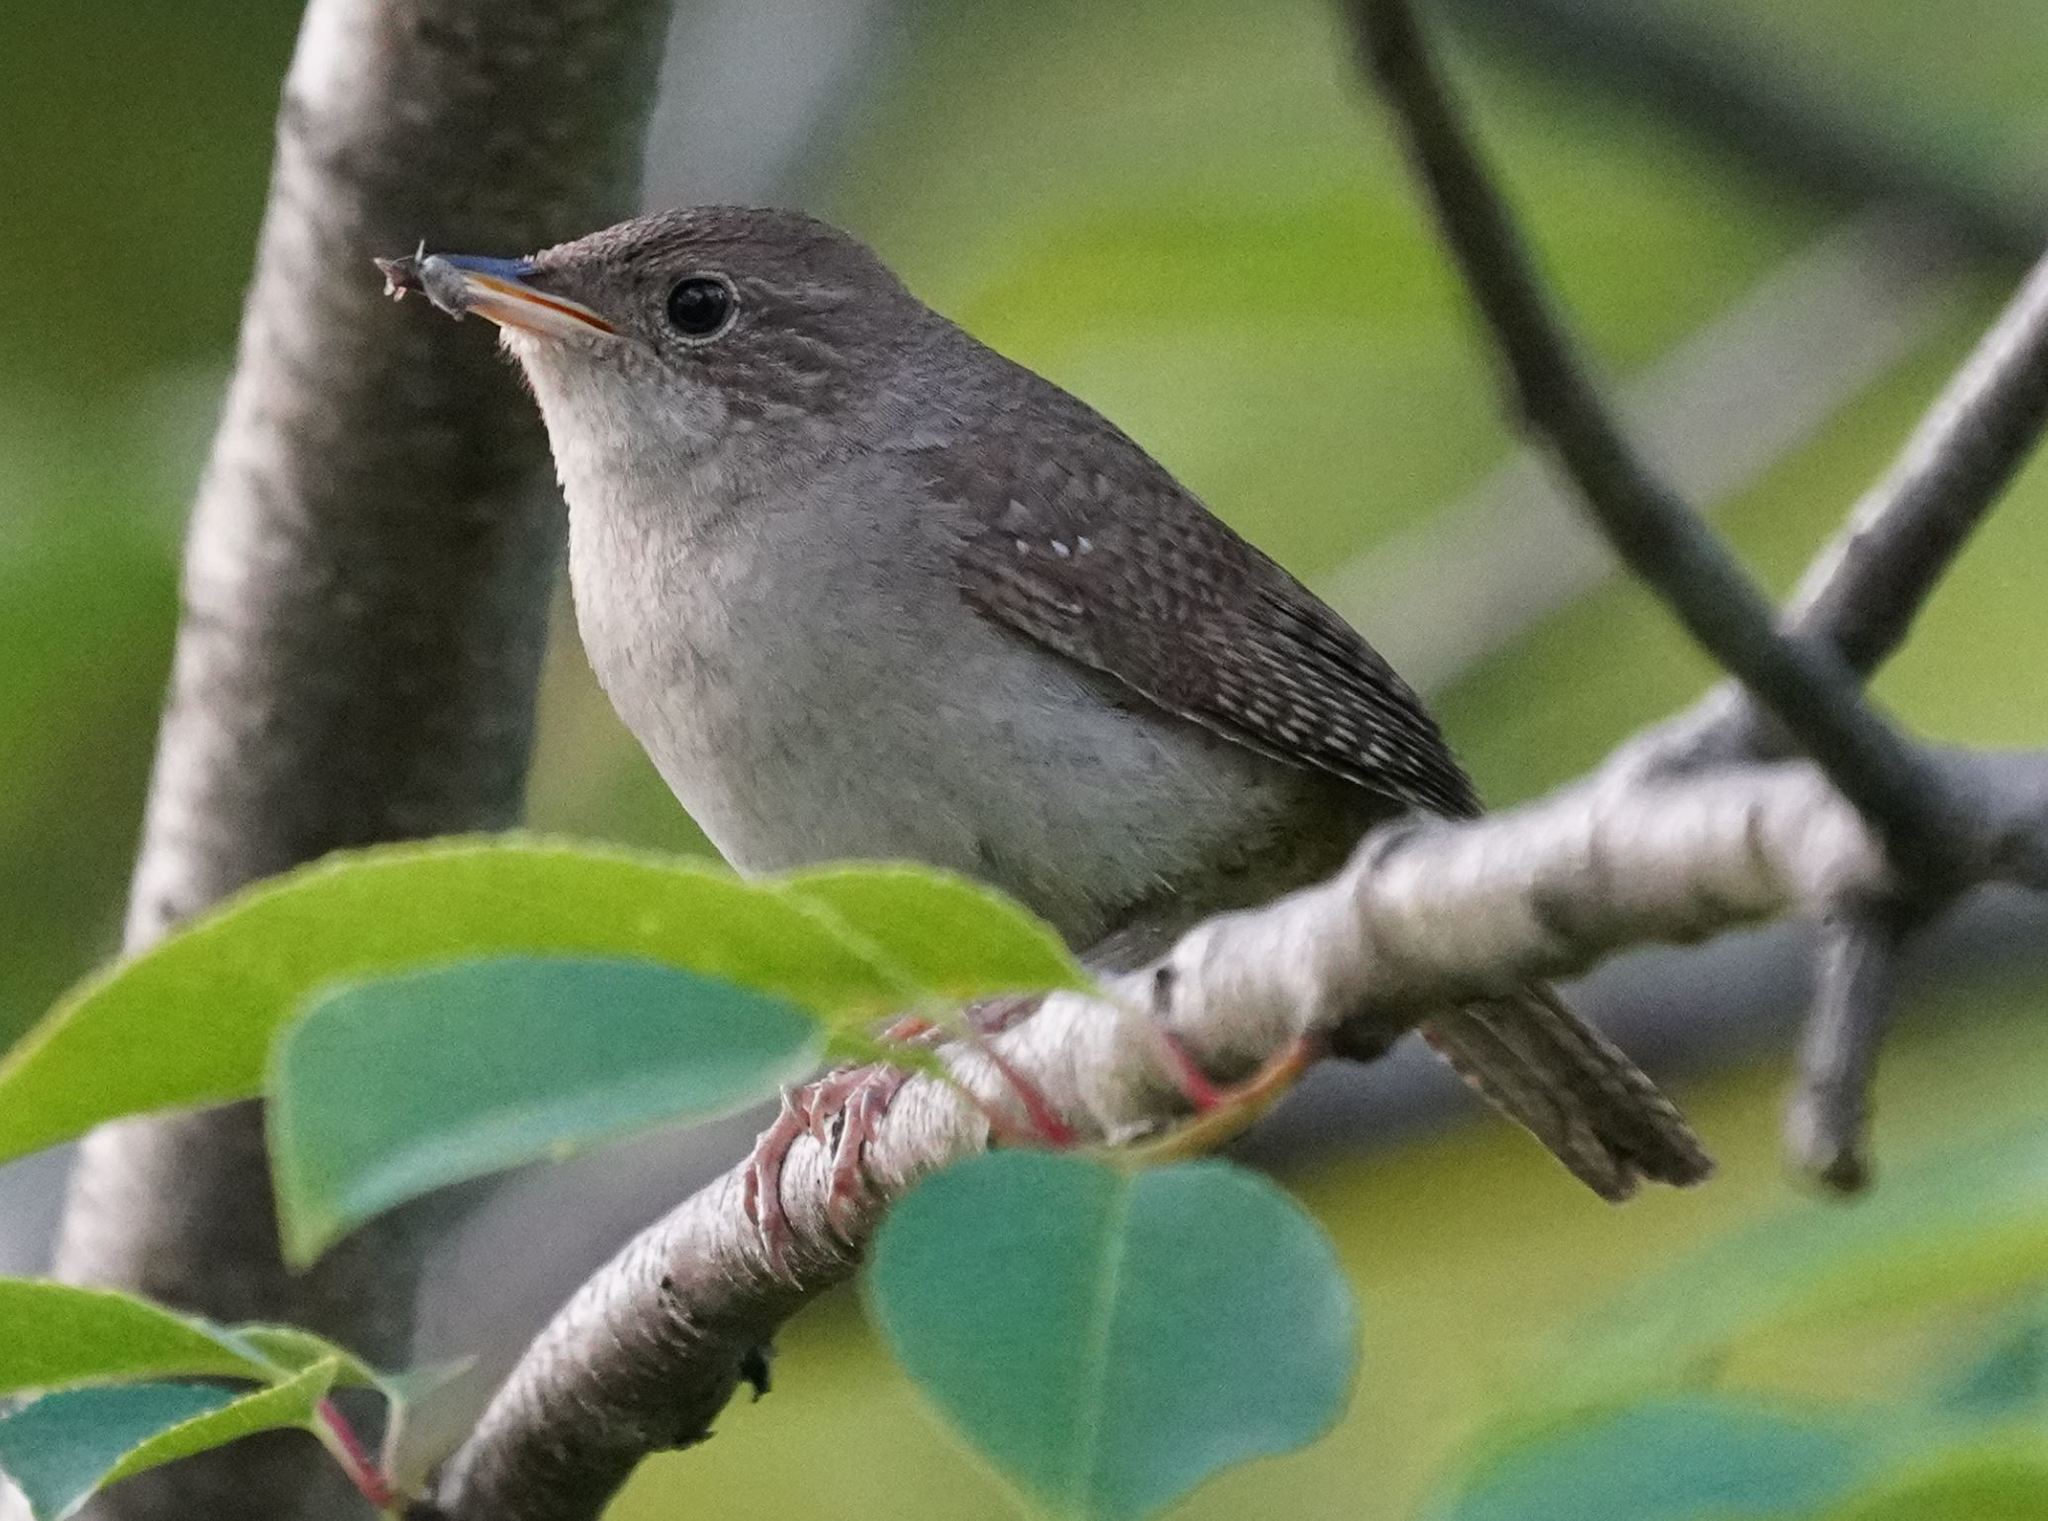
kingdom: Animalia
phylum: Chordata
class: Aves
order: Passeriformes
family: Troglodytidae
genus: Troglodytes
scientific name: Troglodytes aedon
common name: House wren
